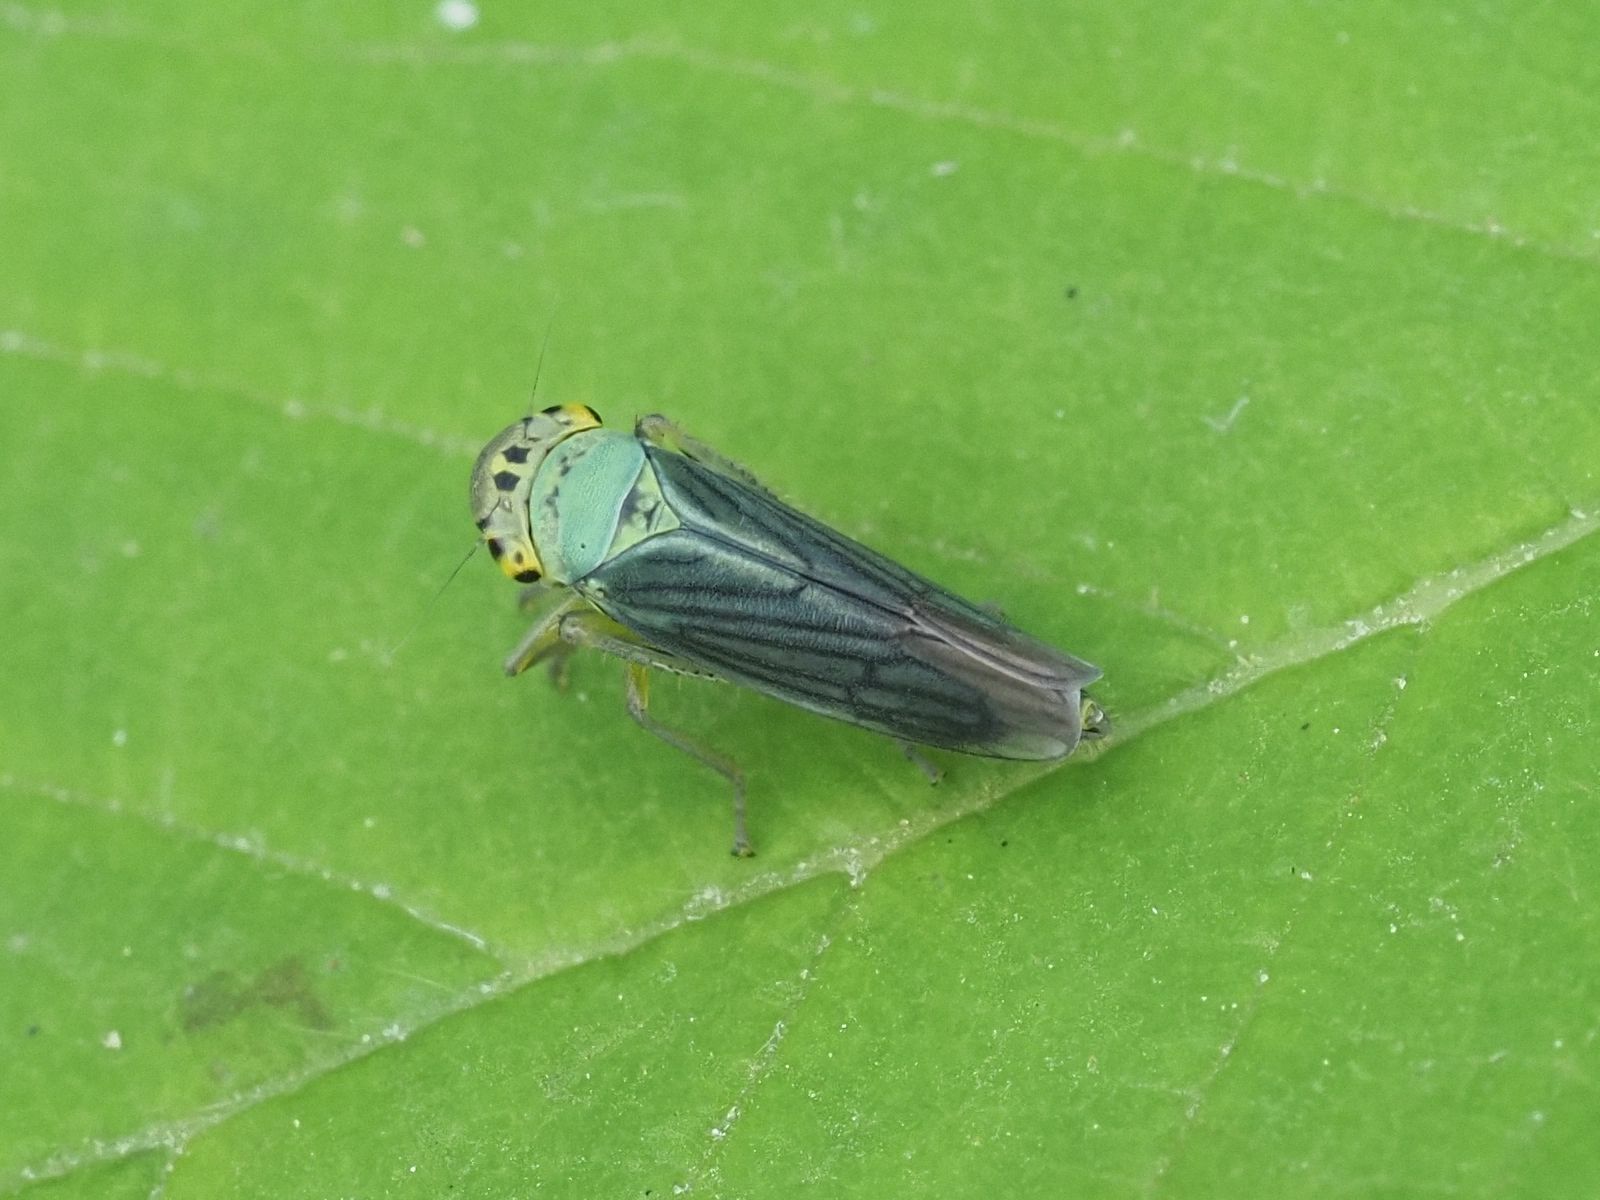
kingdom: Animalia
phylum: Arthropoda
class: Insecta
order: Hemiptera
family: Cicadellidae
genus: Cicadella
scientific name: Cicadella viridis
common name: Leafhopper
